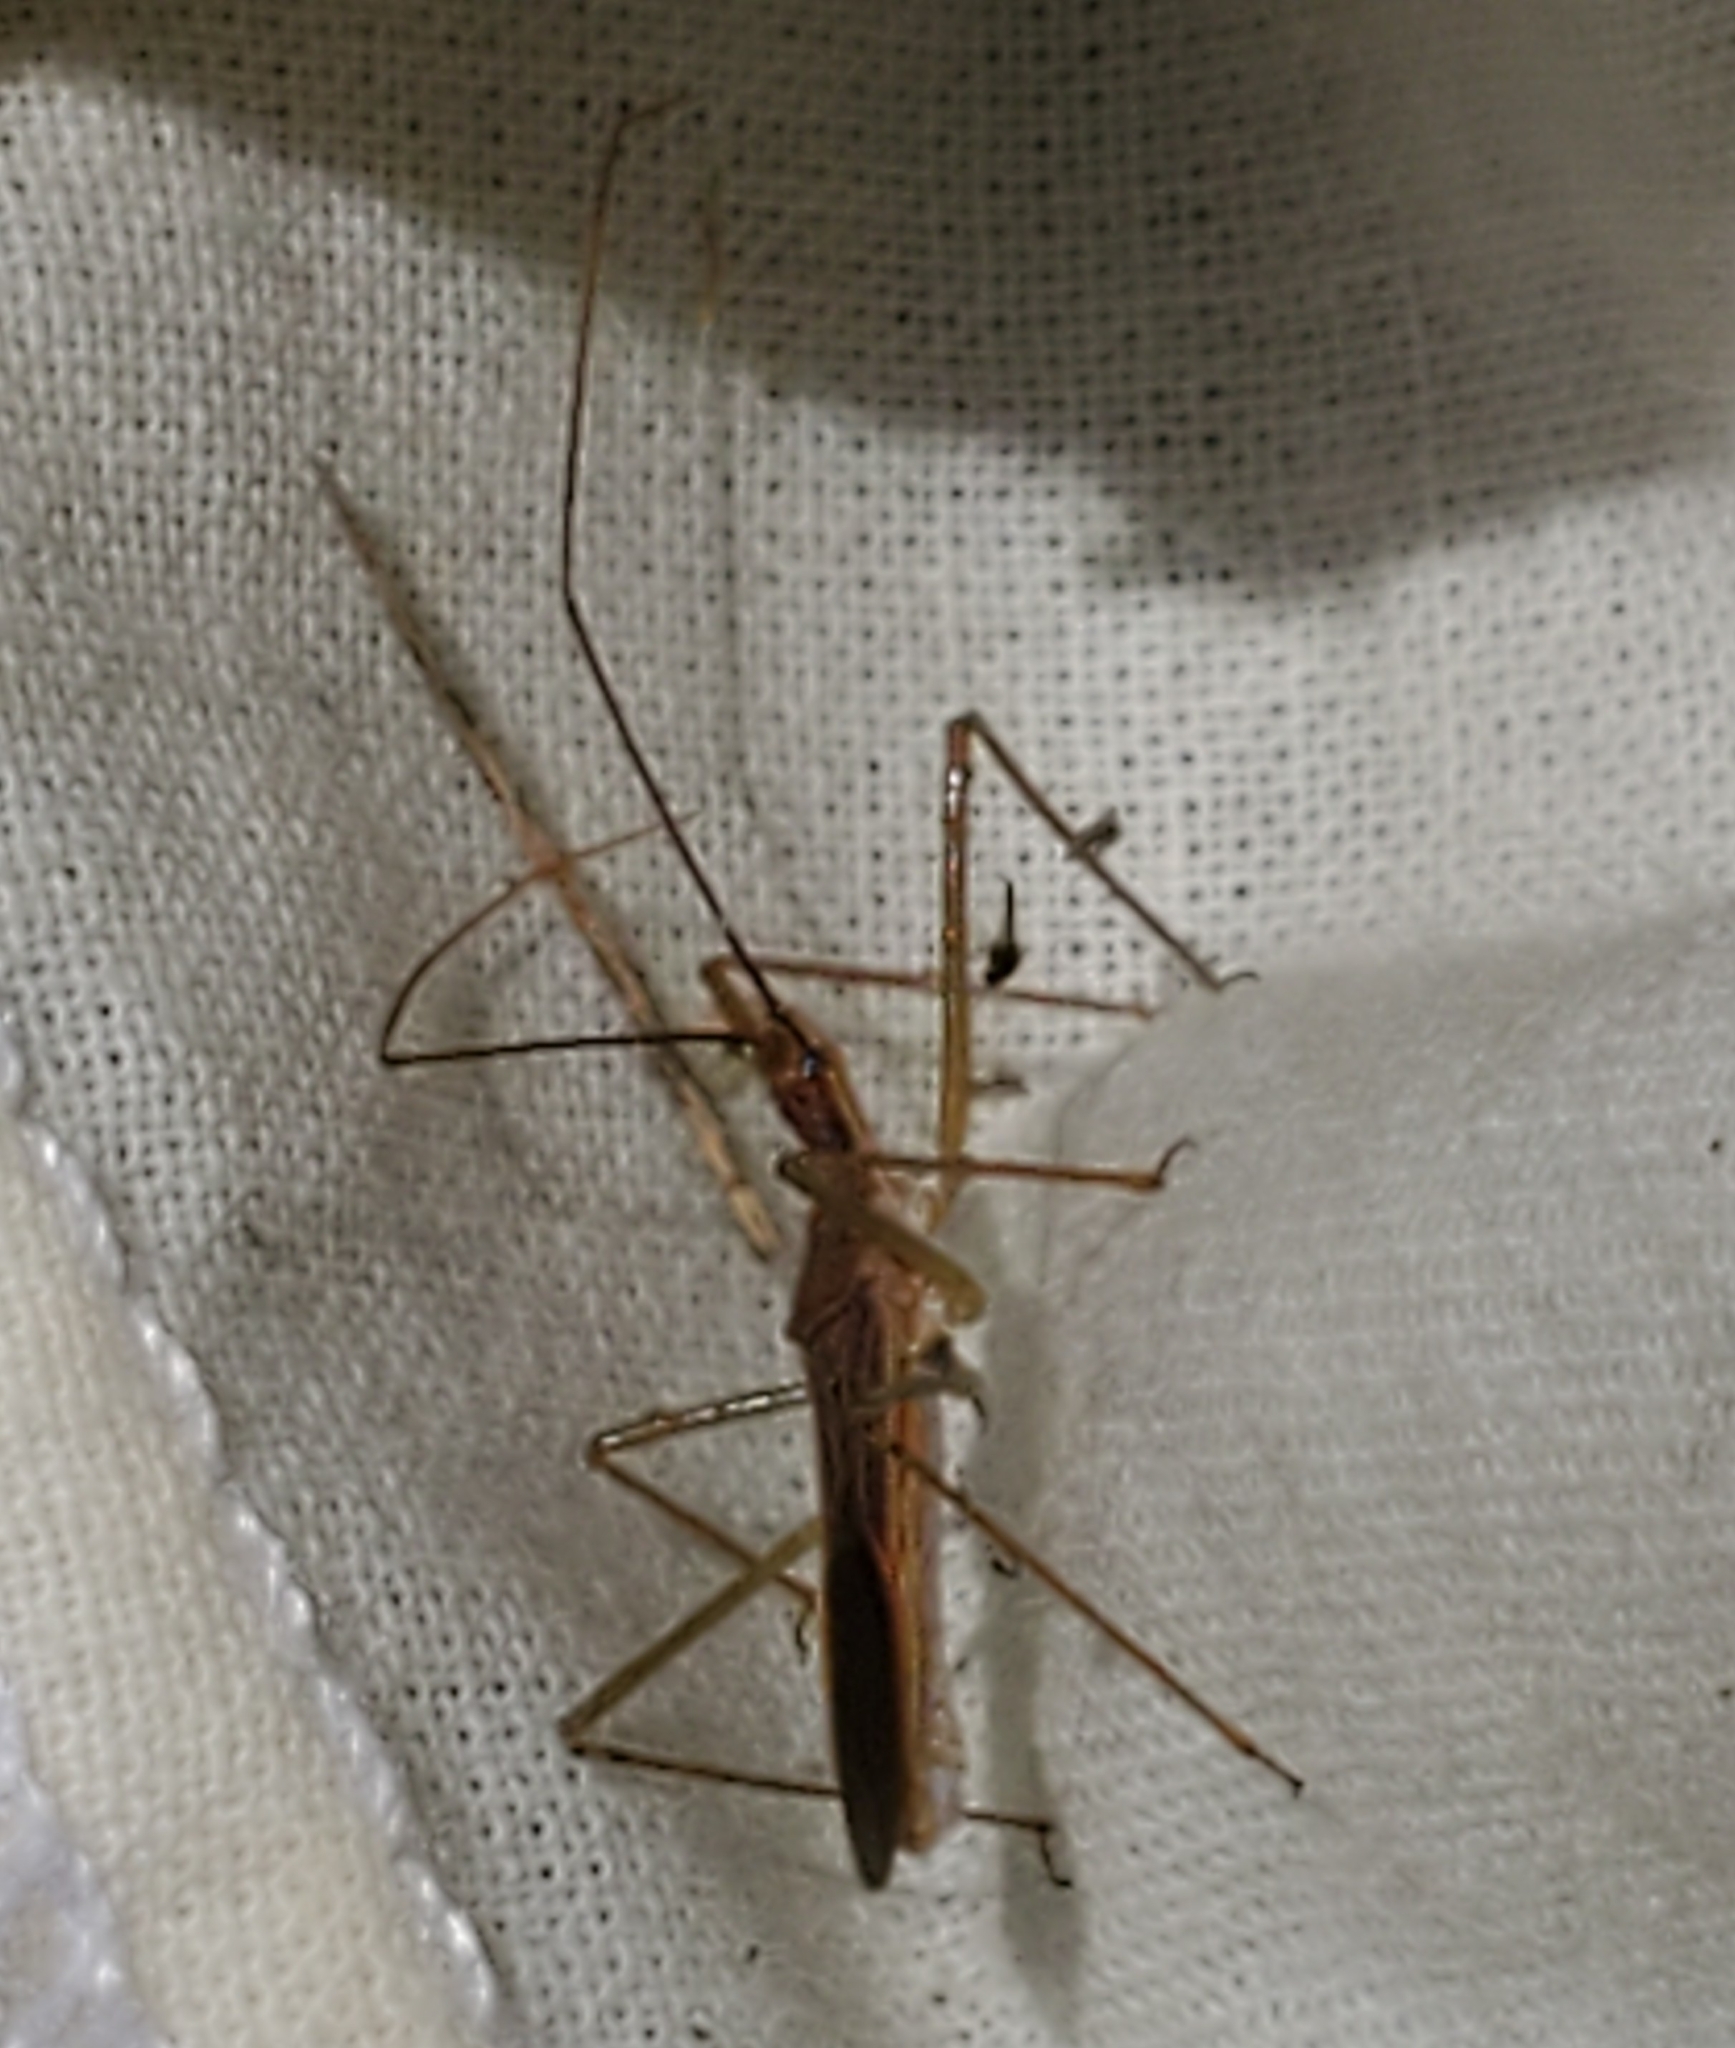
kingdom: Animalia
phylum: Arthropoda
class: Insecta
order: Hemiptera
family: Reduviidae
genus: Zelus
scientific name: Zelus cervicalis
